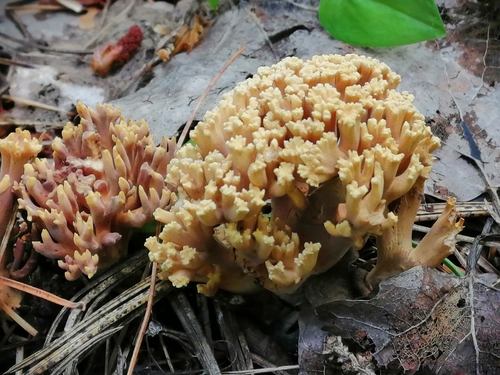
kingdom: Fungi
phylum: Basidiomycota
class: Agaricomycetes
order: Gomphales
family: Gomphaceae
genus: Ramaria
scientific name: Ramaria pallida
